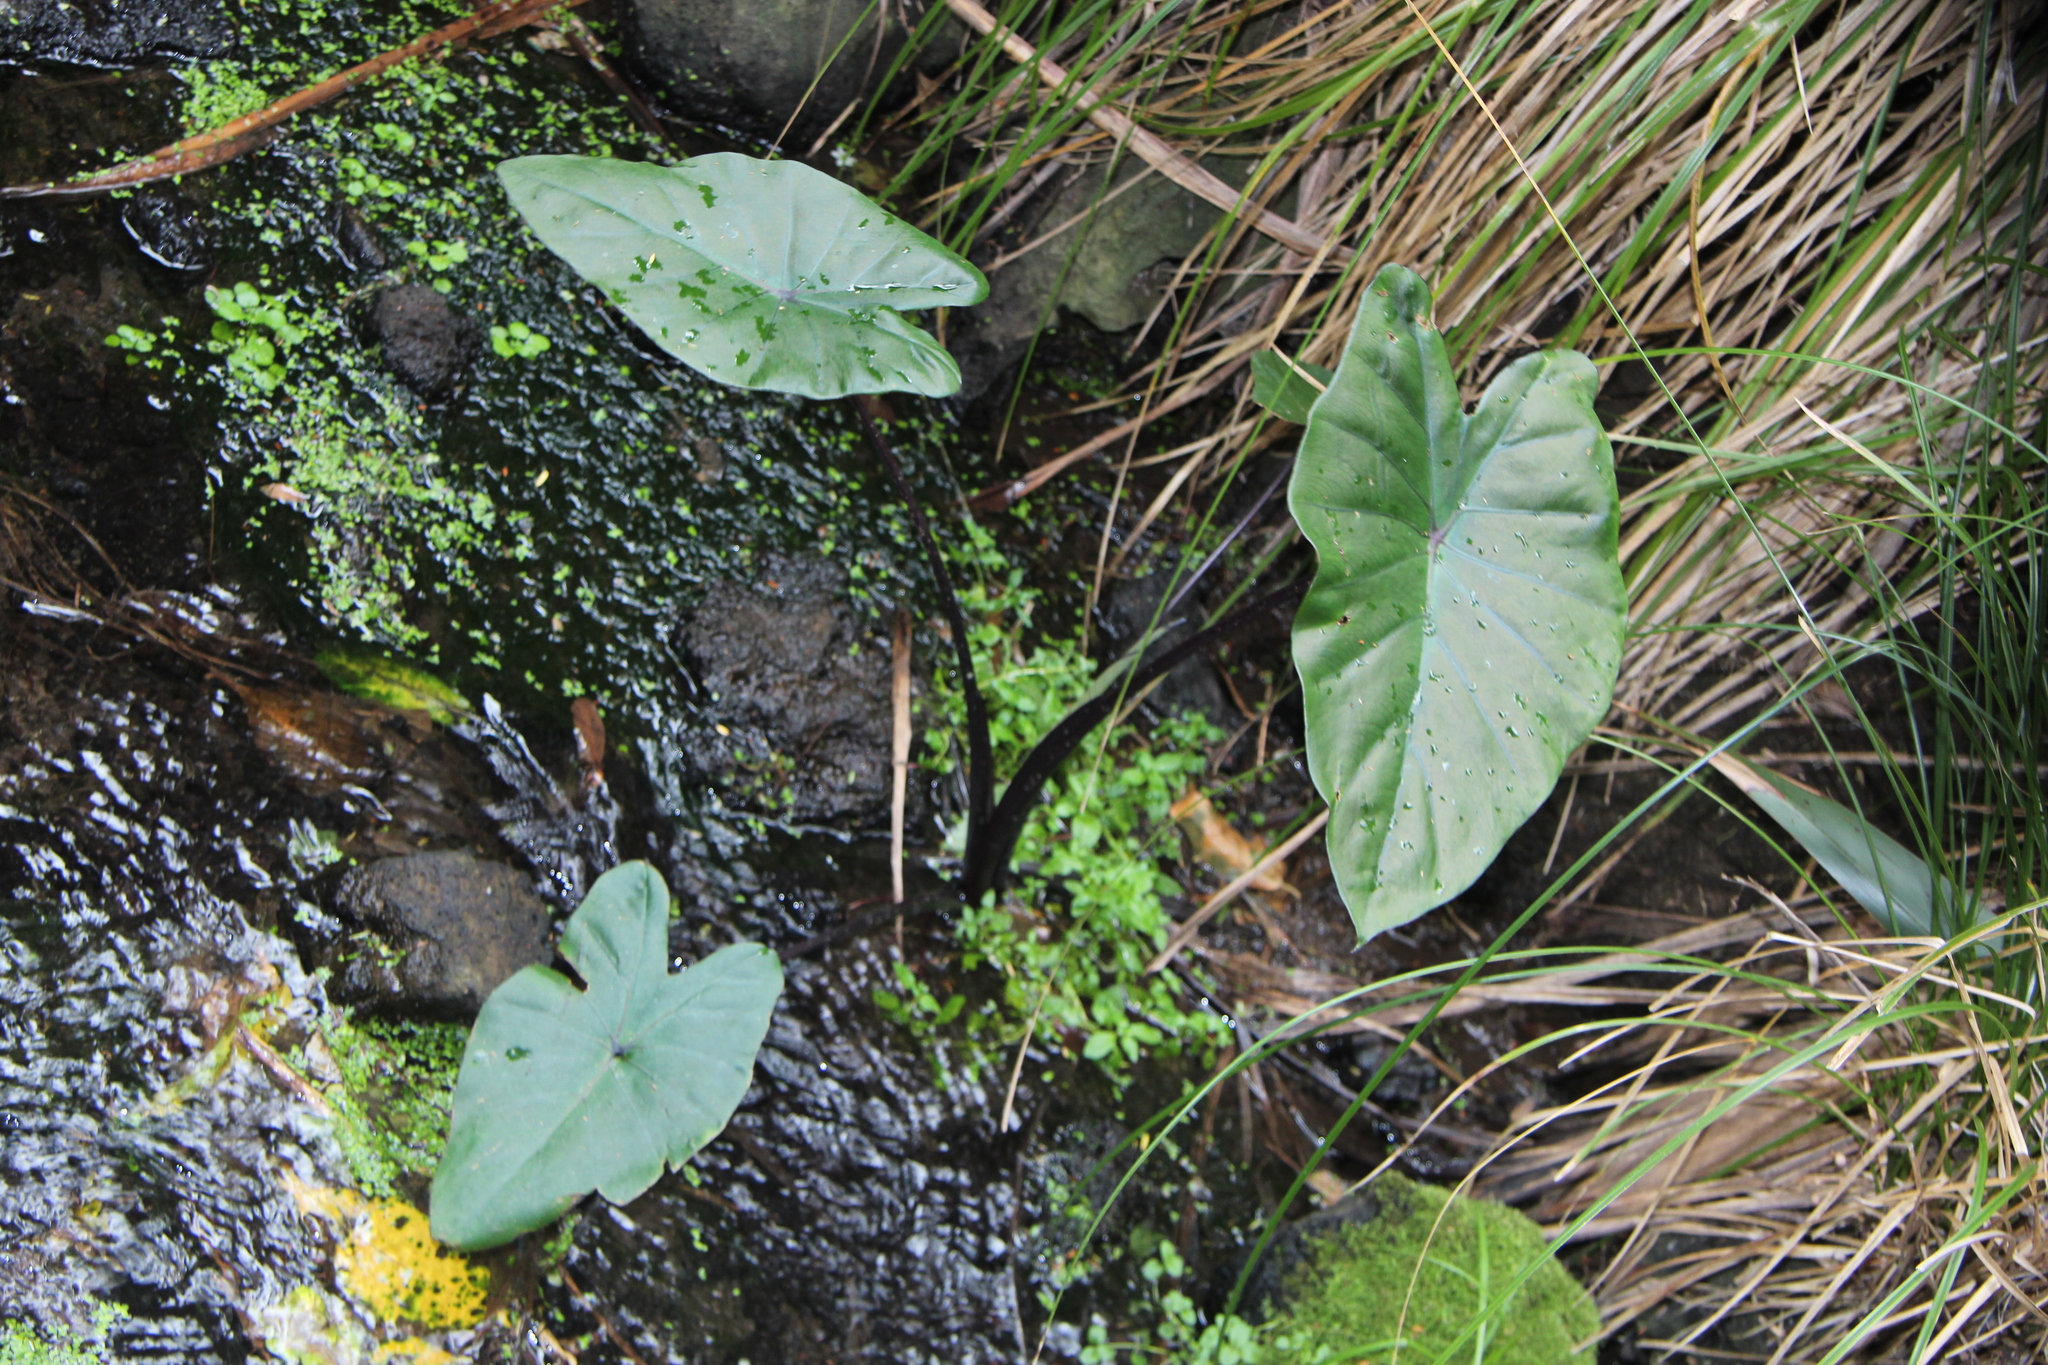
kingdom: Plantae
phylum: Tracheophyta
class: Liliopsida
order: Alismatales
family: Araceae
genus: Colocasia
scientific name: Colocasia esculenta
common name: Taro
